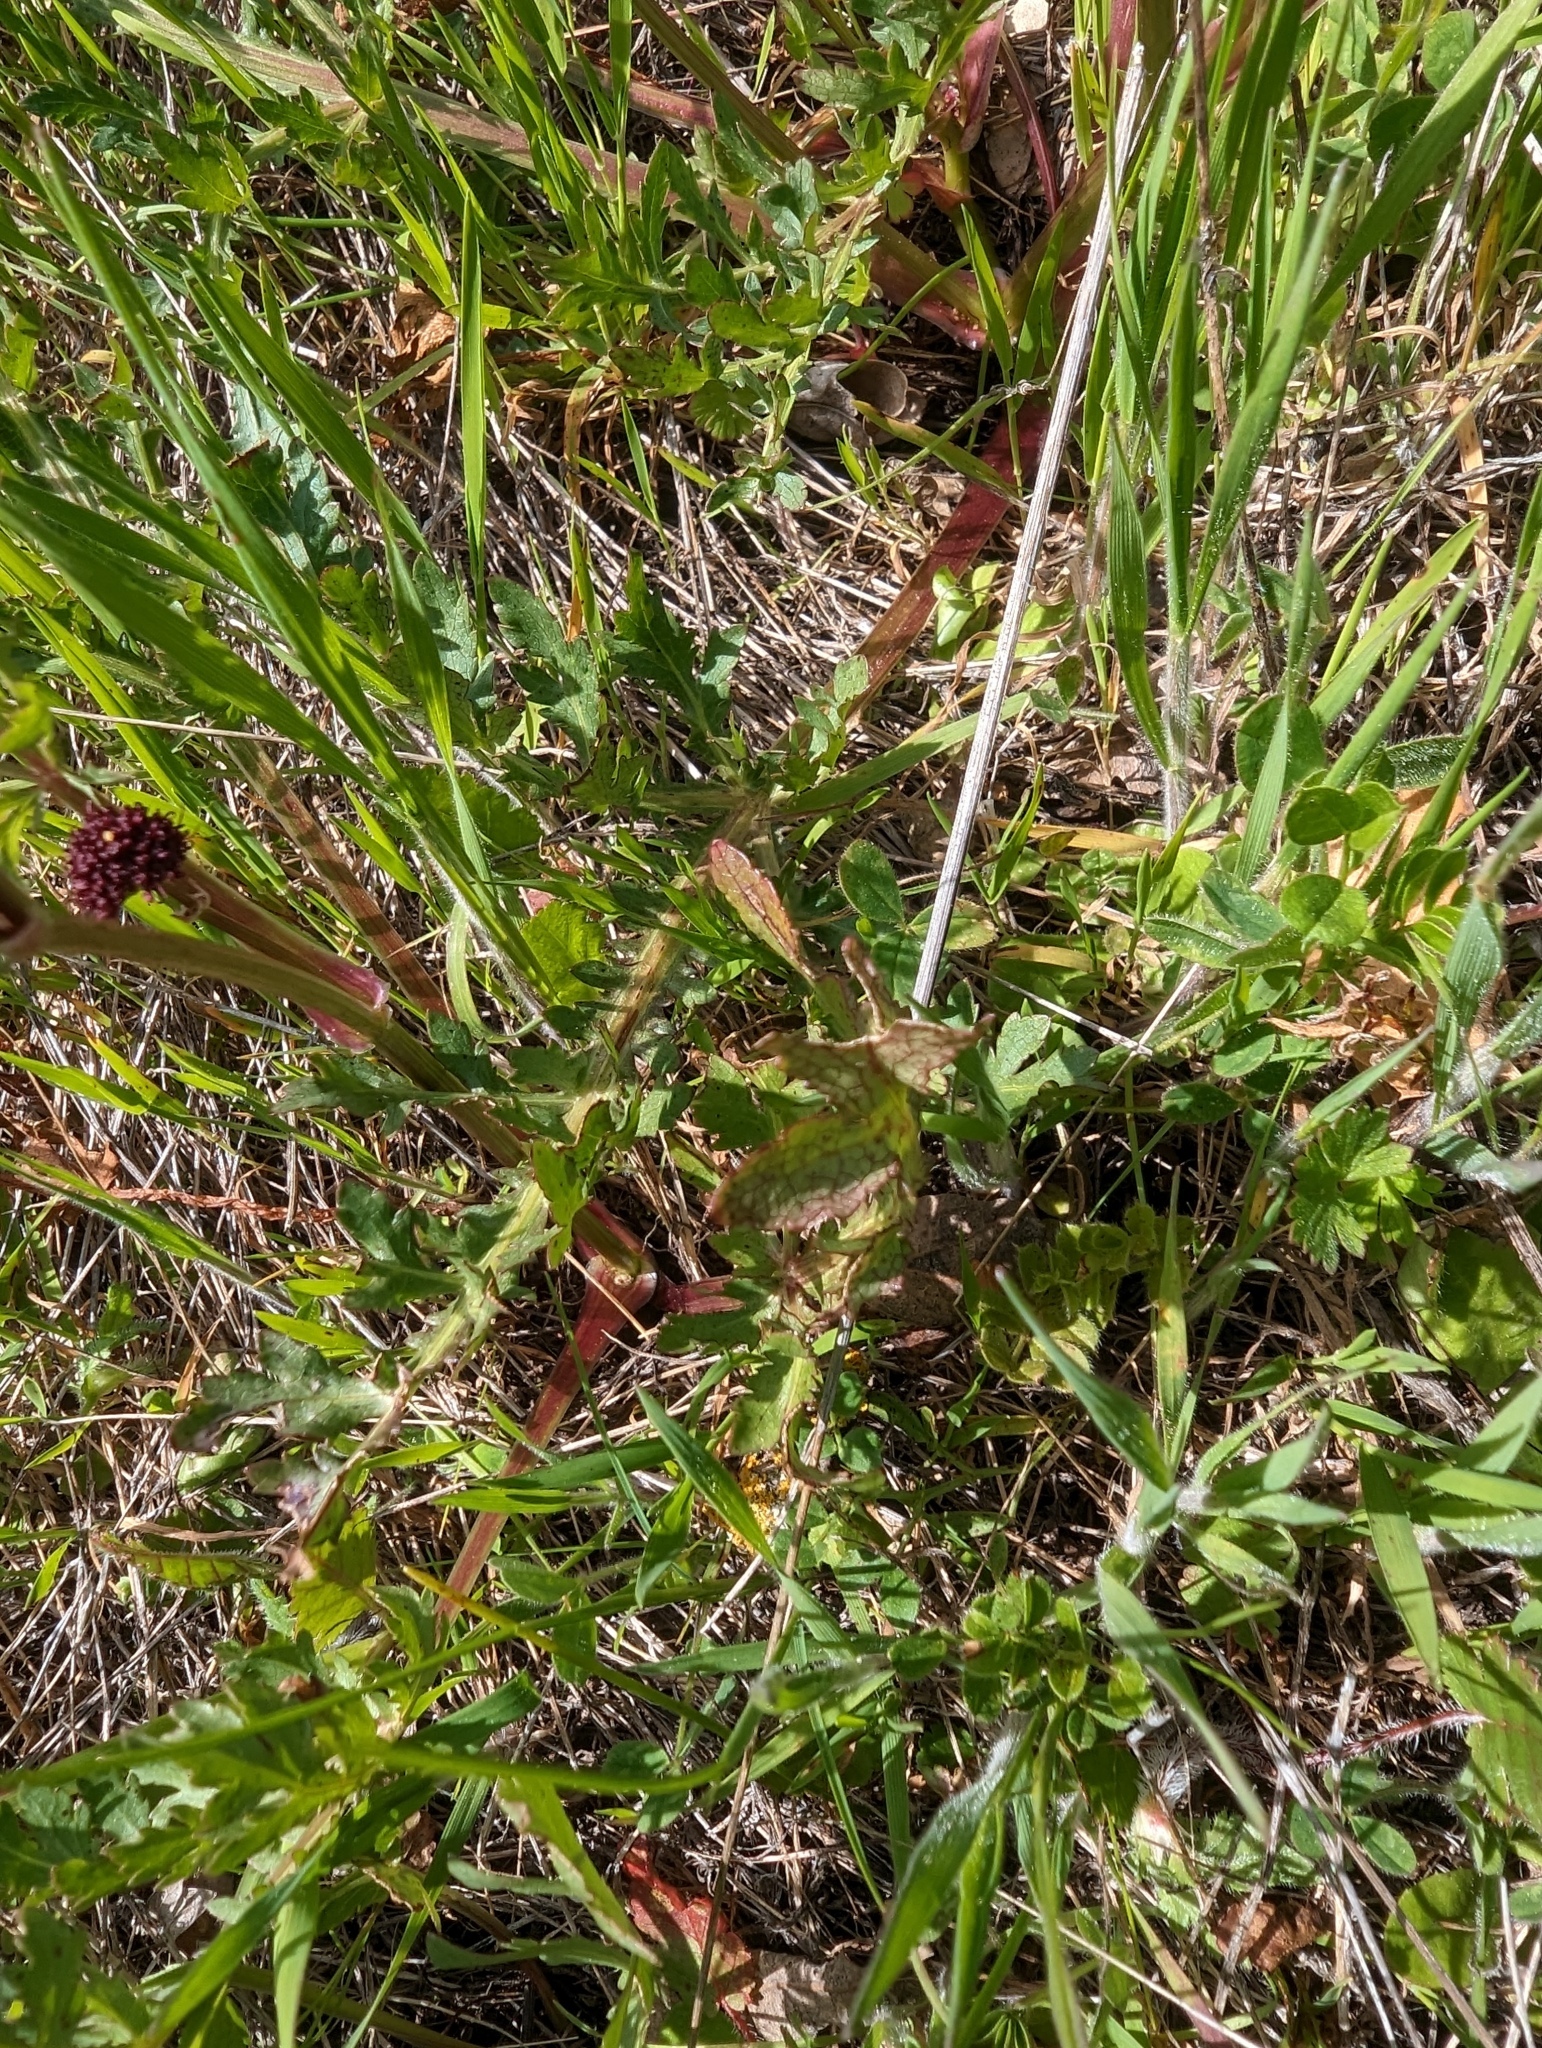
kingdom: Plantae
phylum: Tracheophyta
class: Magnoliopsida
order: Apiales
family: Apiaceae
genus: Sanicula
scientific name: Sanicula bipinnatifida
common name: Shoe-buttons
